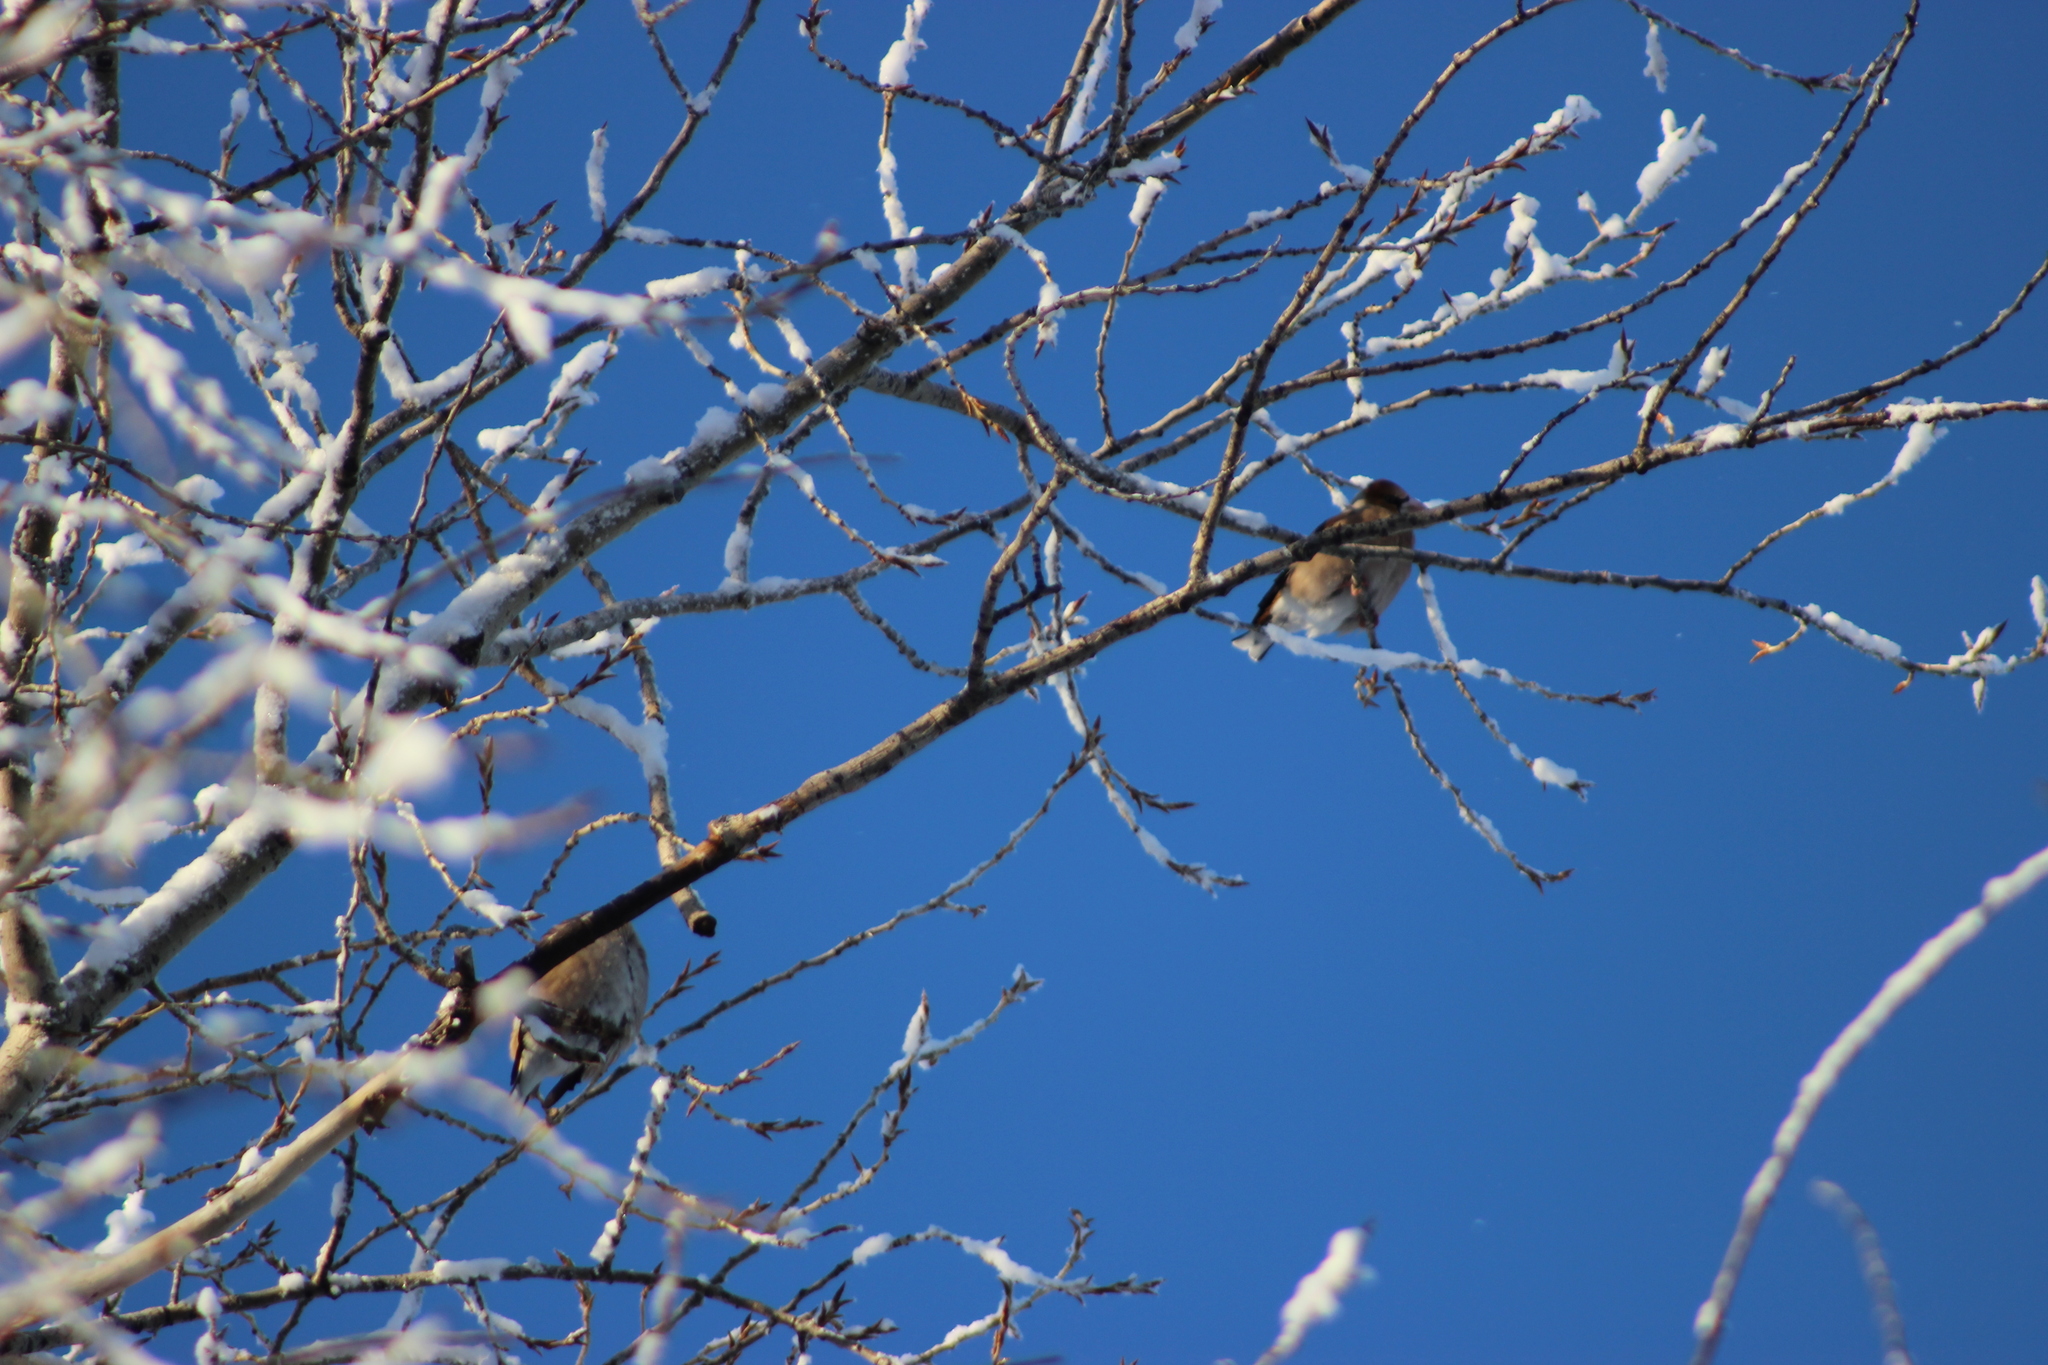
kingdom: Animalia
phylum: Chordata
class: Aves
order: Passeriformes
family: Fringillidae
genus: Coccothraustes
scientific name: Coccothraustes coccothraustes
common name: Hawfinch
